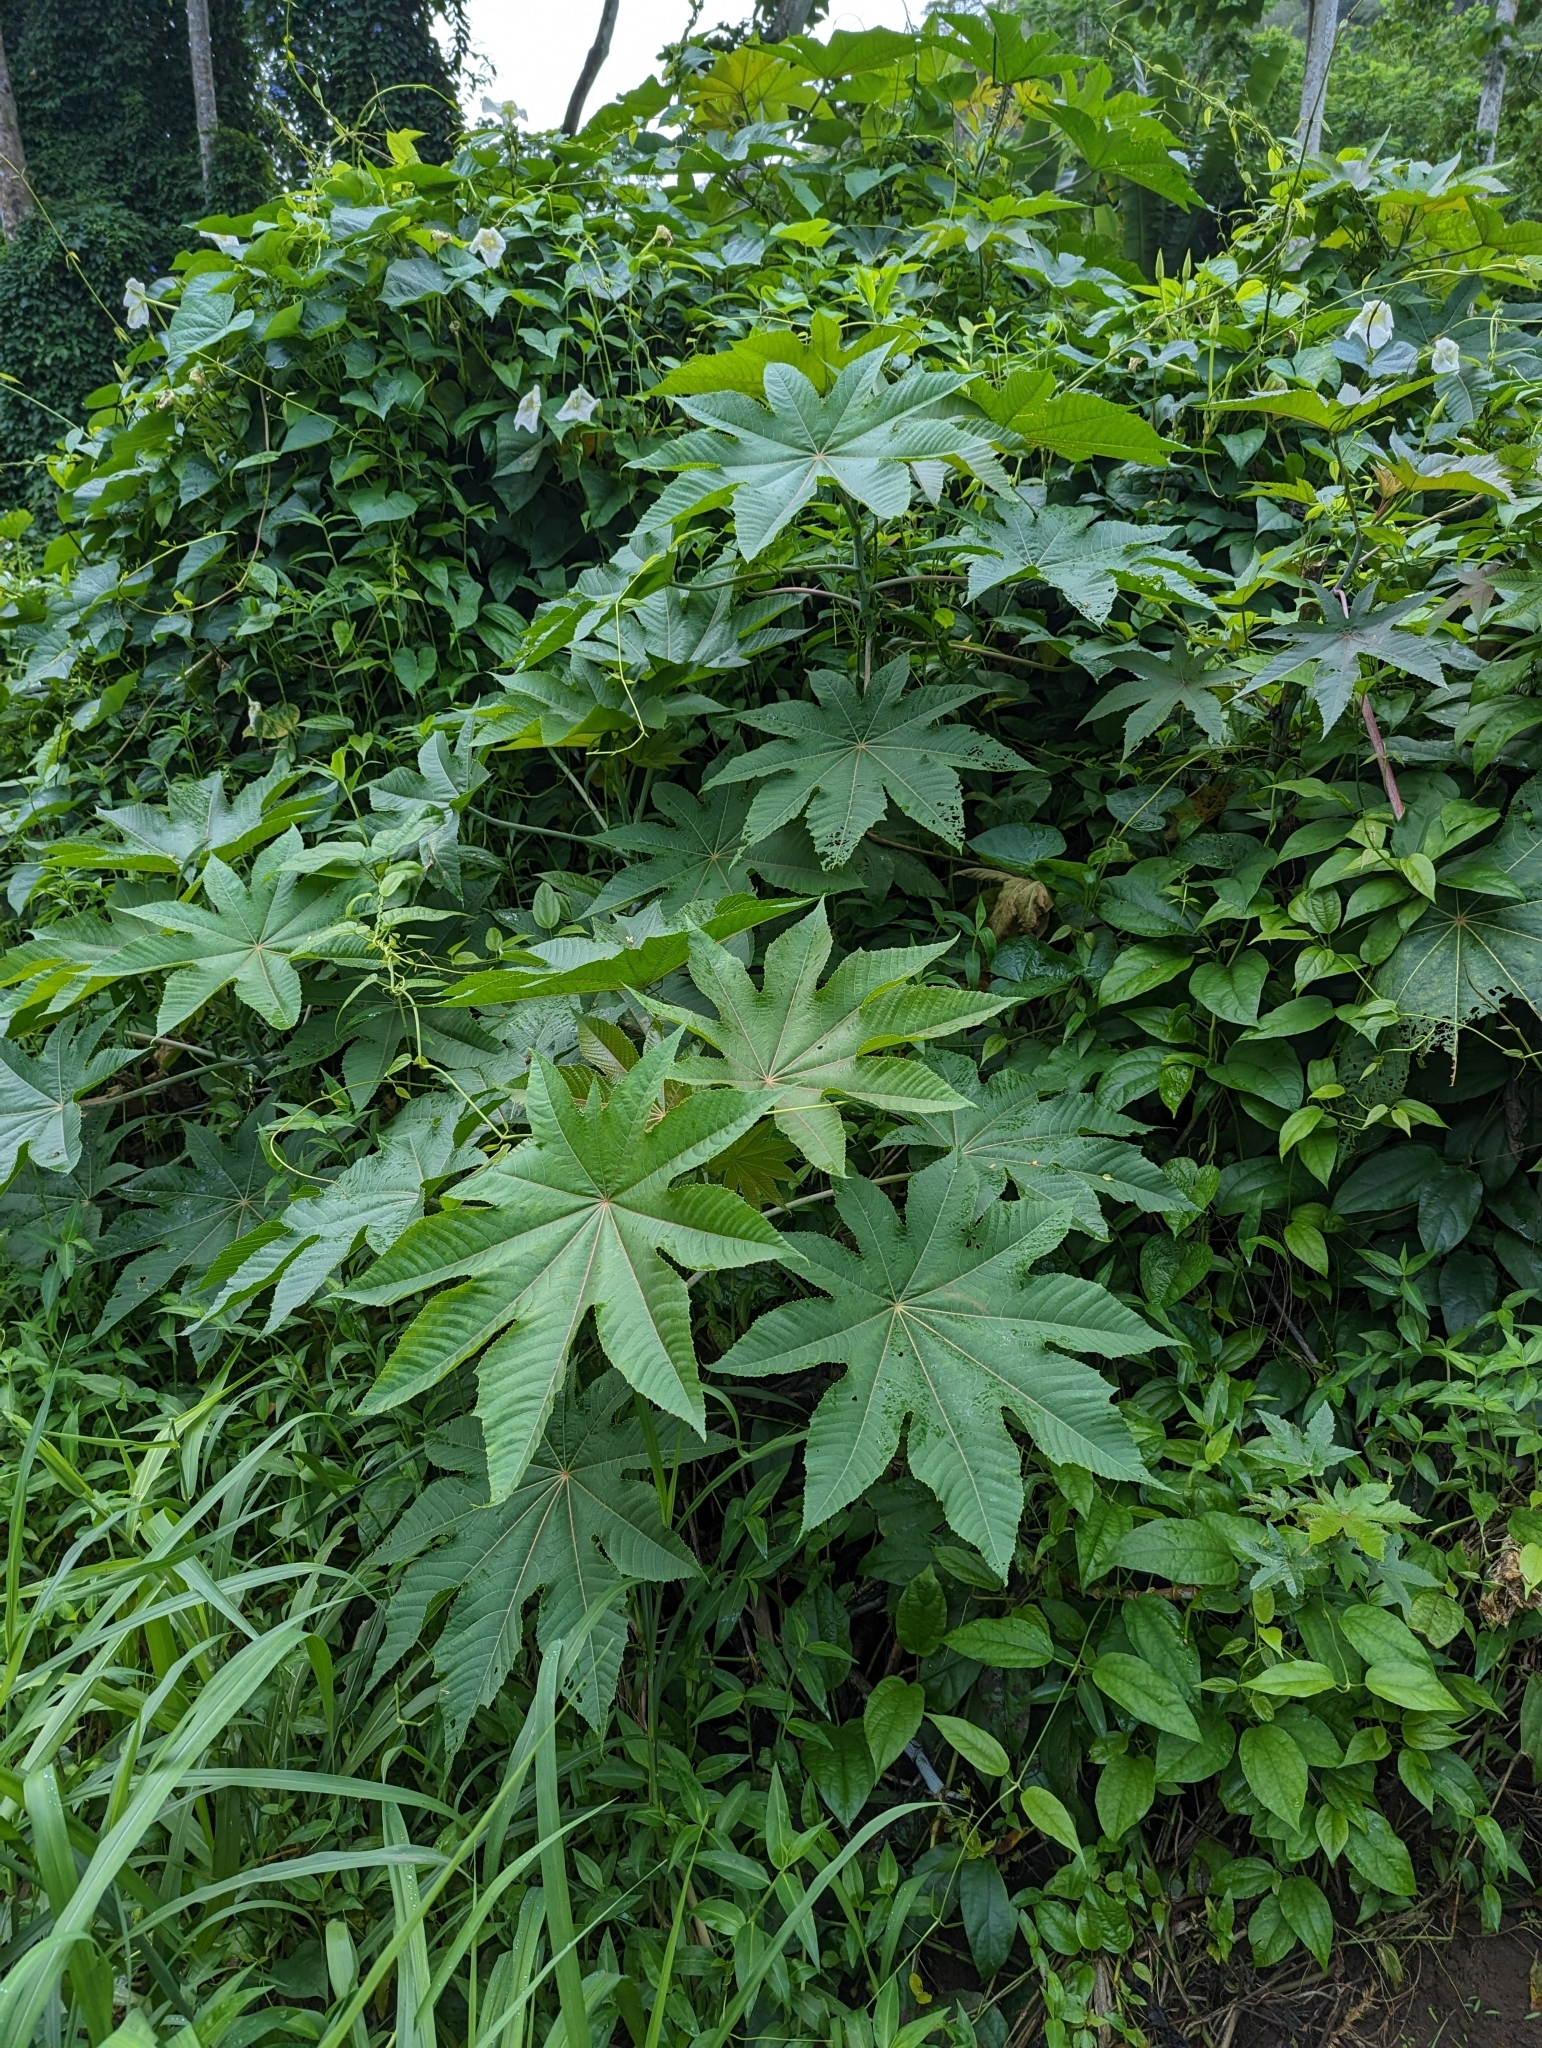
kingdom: Plantae
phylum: Tracheophyta
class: Magnoliopsida
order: Malpighiales
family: Euphorbiaceae
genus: Ricinus
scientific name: Ricinus communis
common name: Castor-oil-plant
